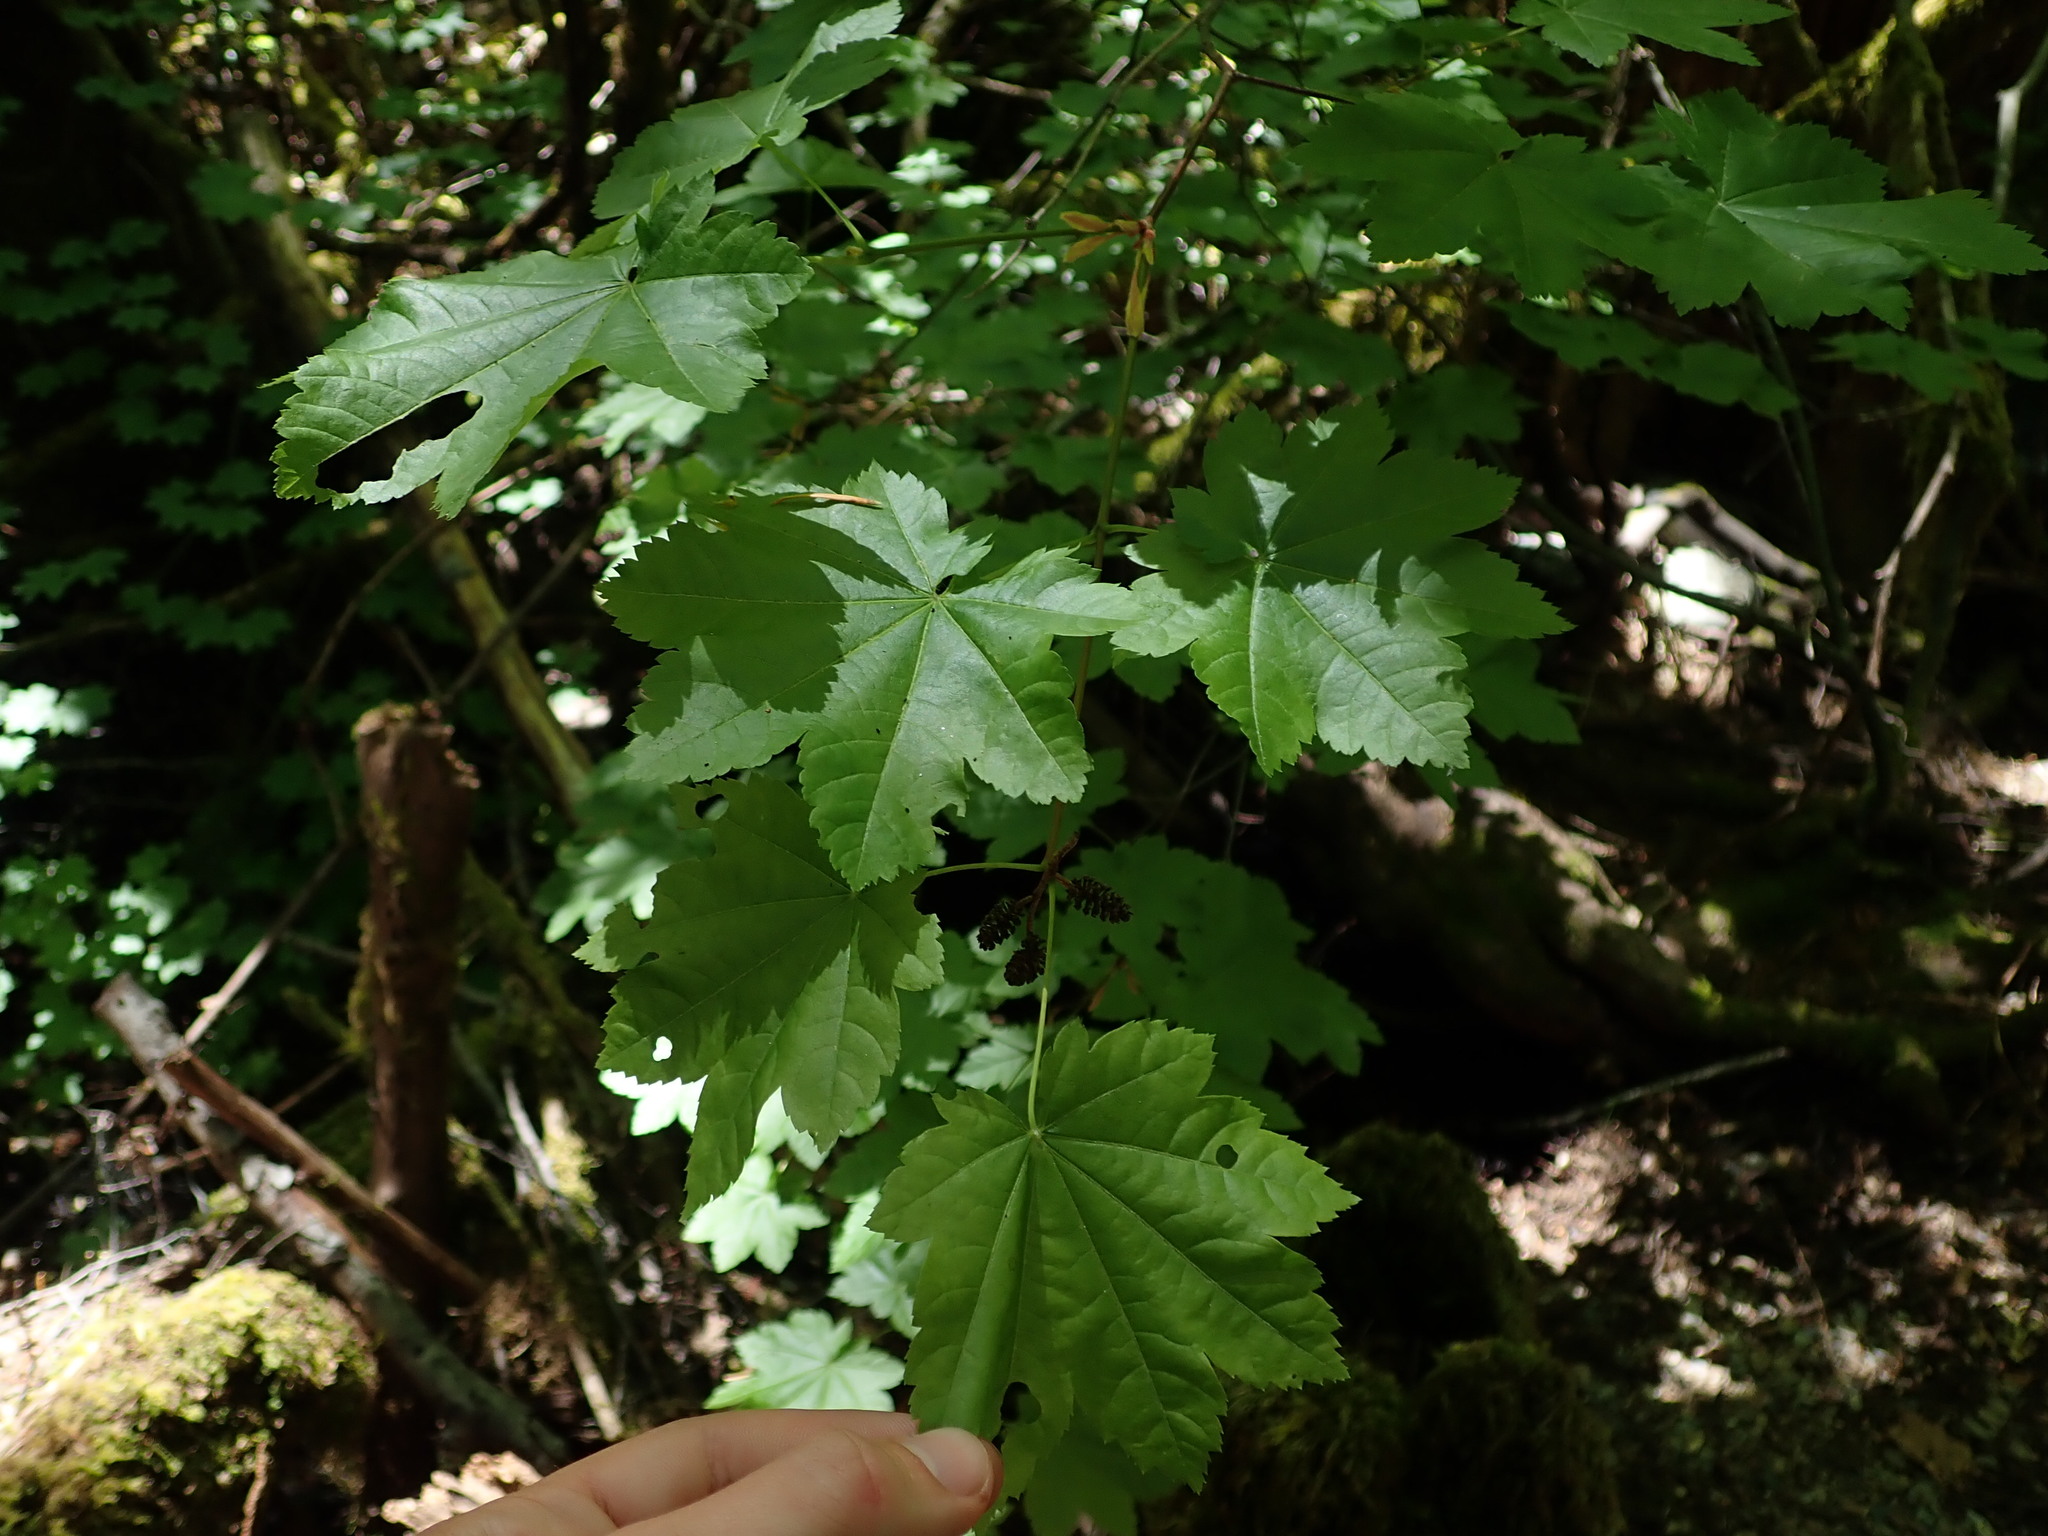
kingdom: Plantae
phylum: Tracheophyta
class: Magnoliopsida
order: Sapindales
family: Sapindaceae
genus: Acer
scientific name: Acer circinatum
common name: Vine maple
